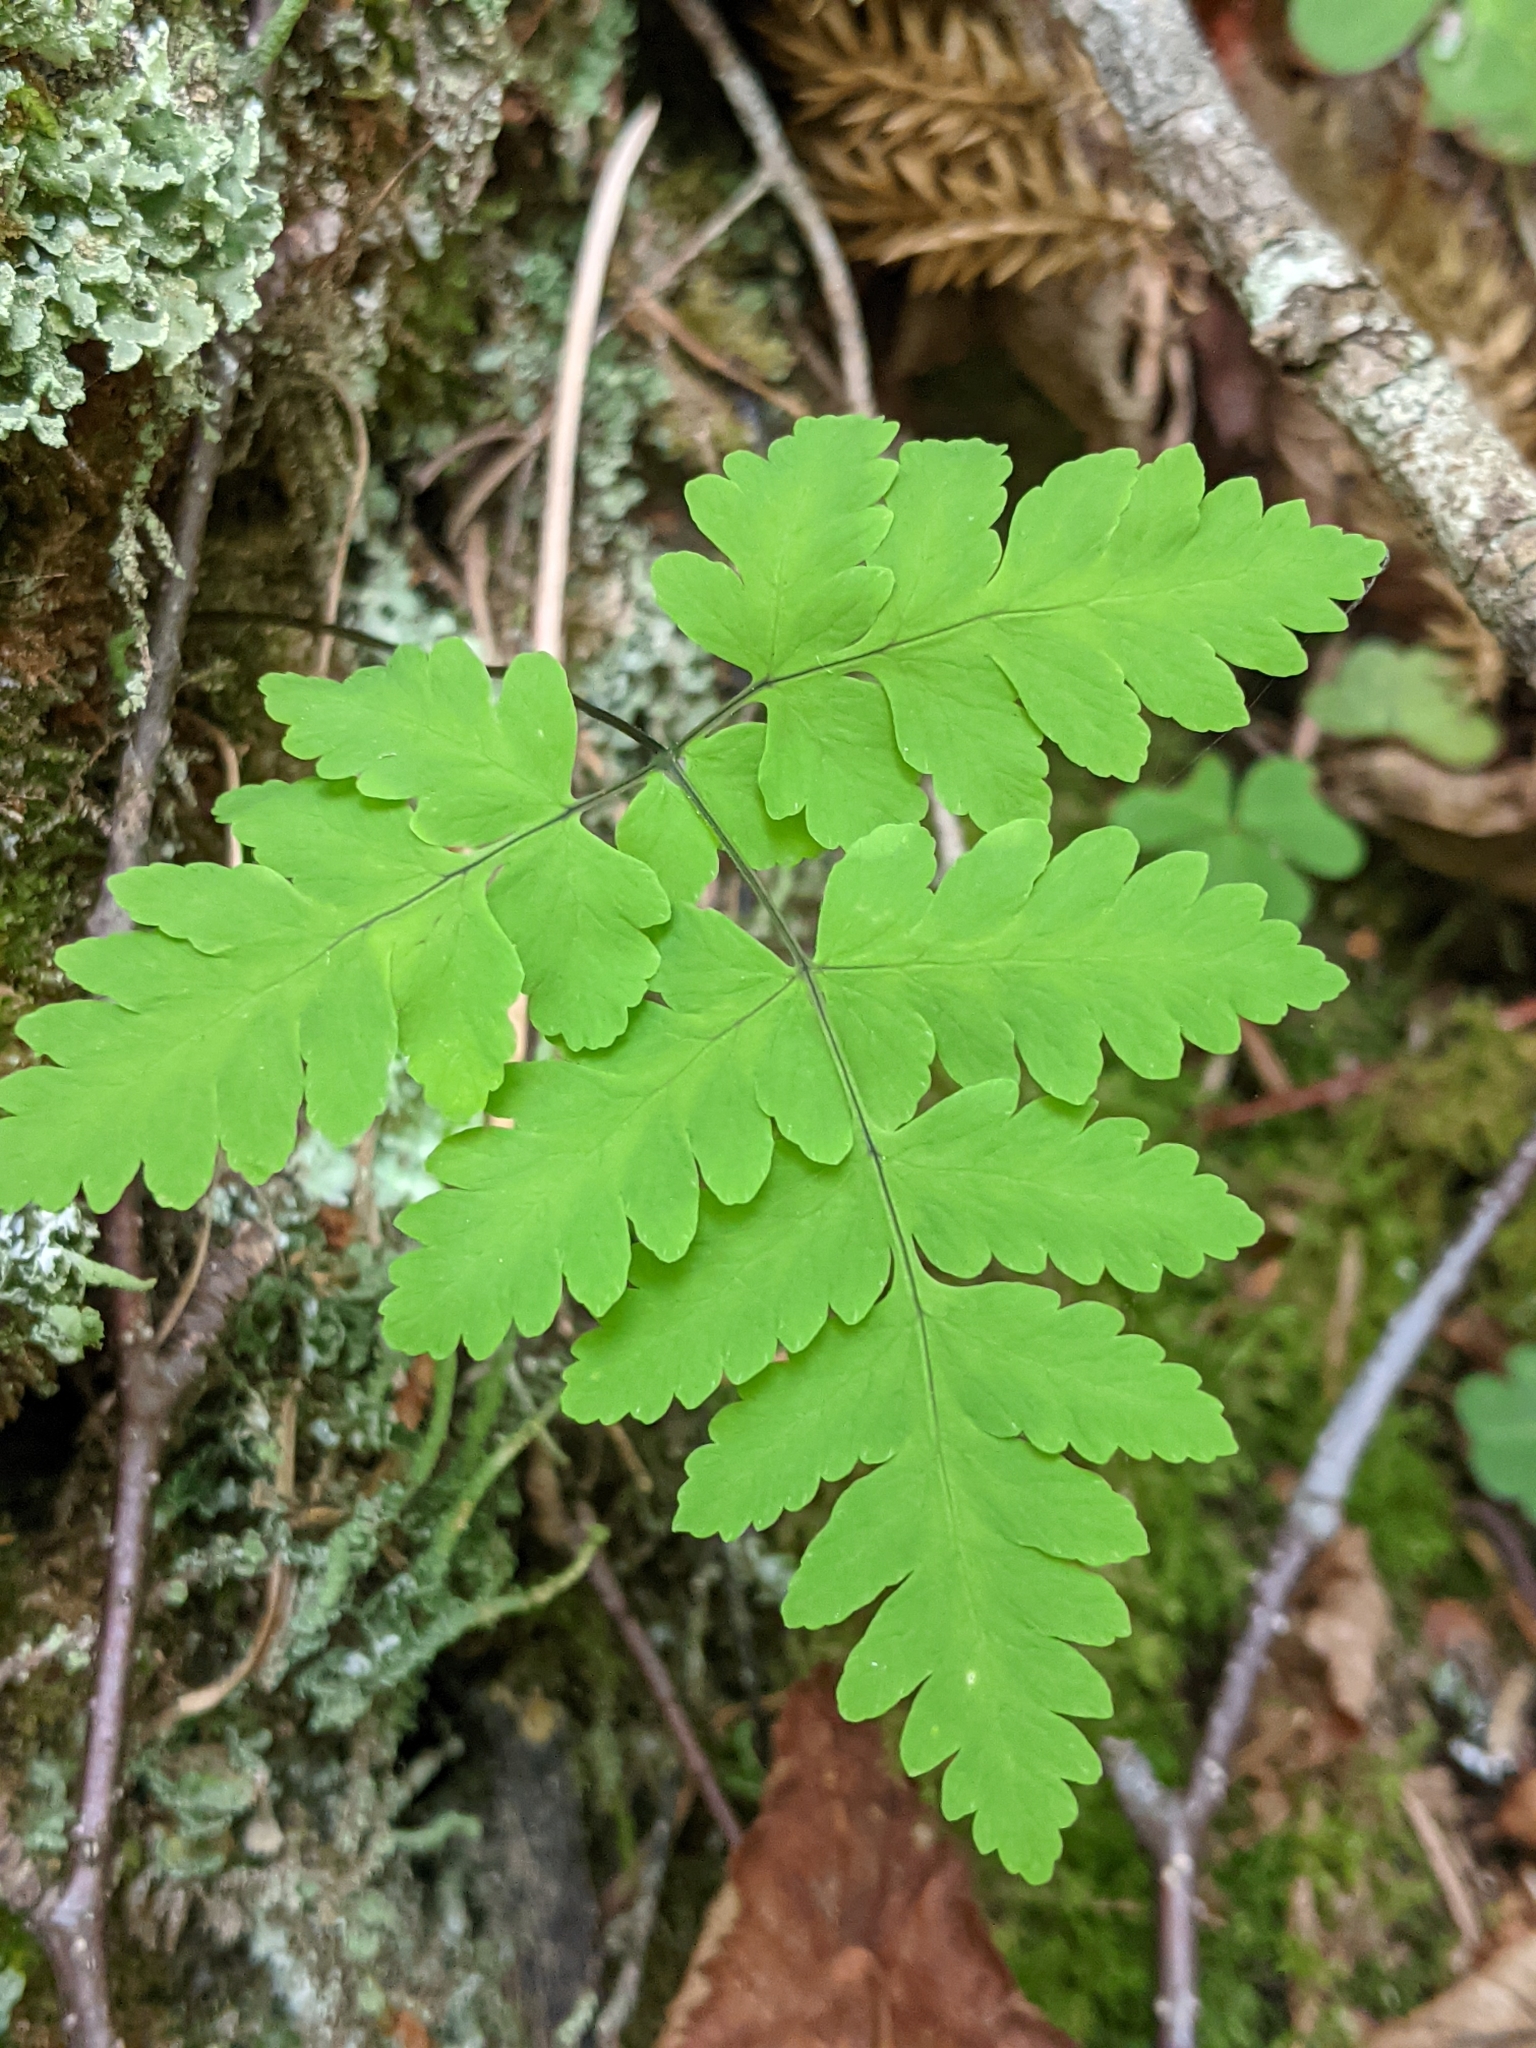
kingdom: Plantae
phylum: Tracheophyta
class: Polypodiopsida
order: Polypodiales
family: Cystopteridaceae
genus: Gymnocarpium
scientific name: Gymnocarpium dryopteris
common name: Oak fern
